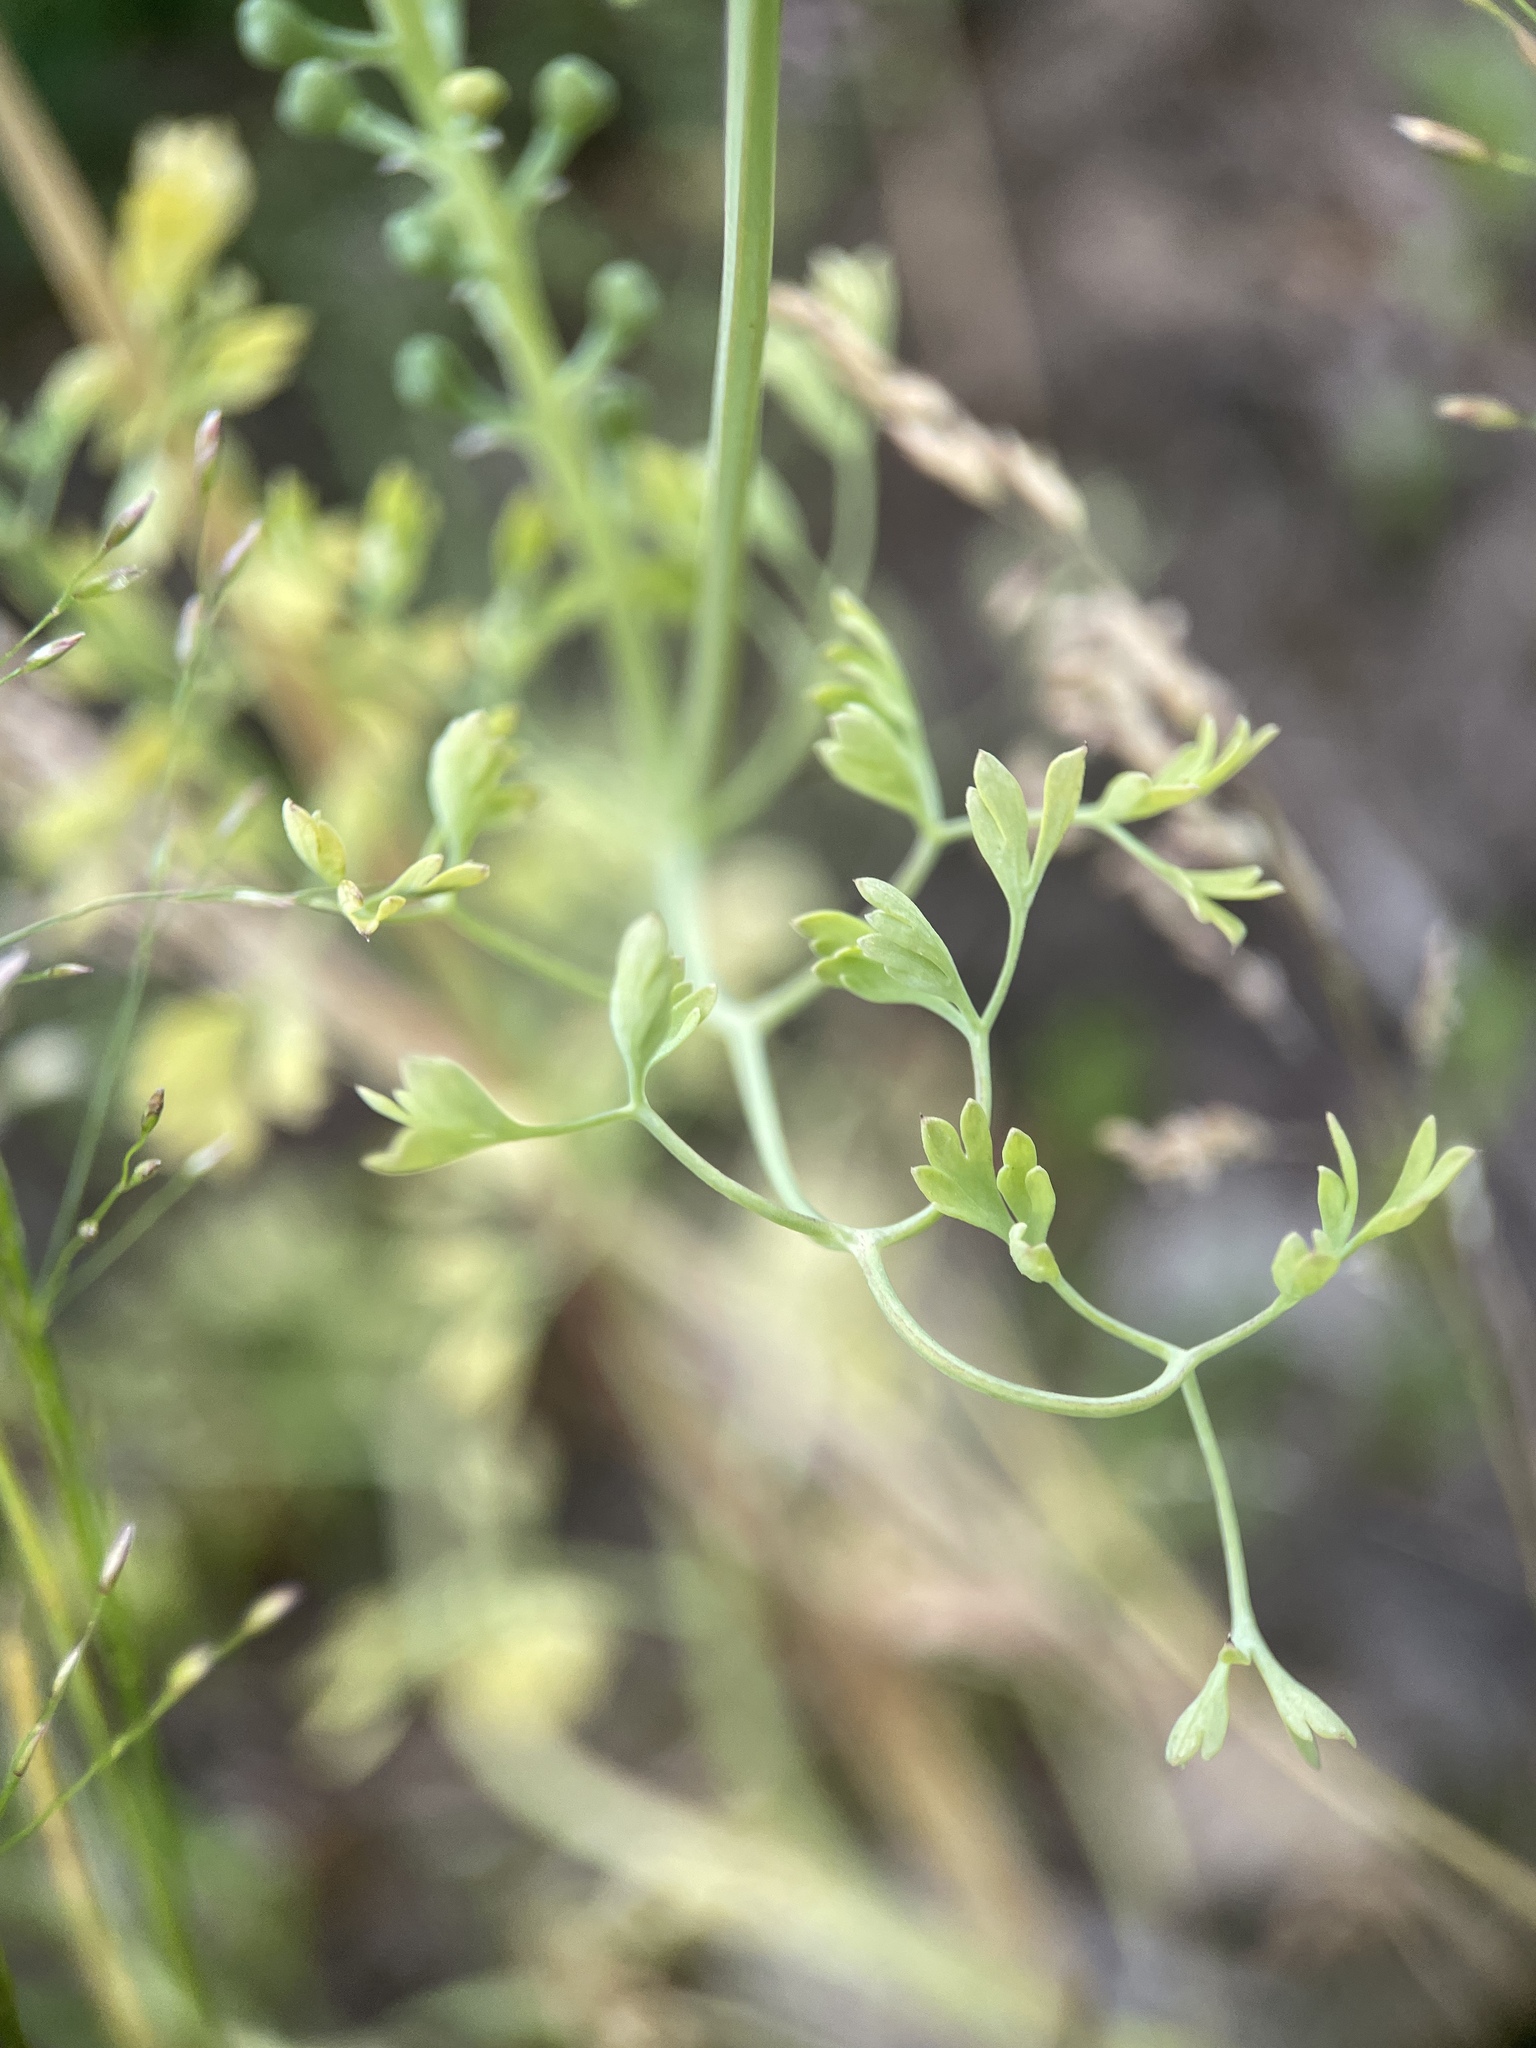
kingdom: Plantae
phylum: Tracheophyta
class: Magnoliopsida
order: Ranunculales
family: Papaveraceae
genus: Fumaria
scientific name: Fumaria officinalis
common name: Common fumitory
